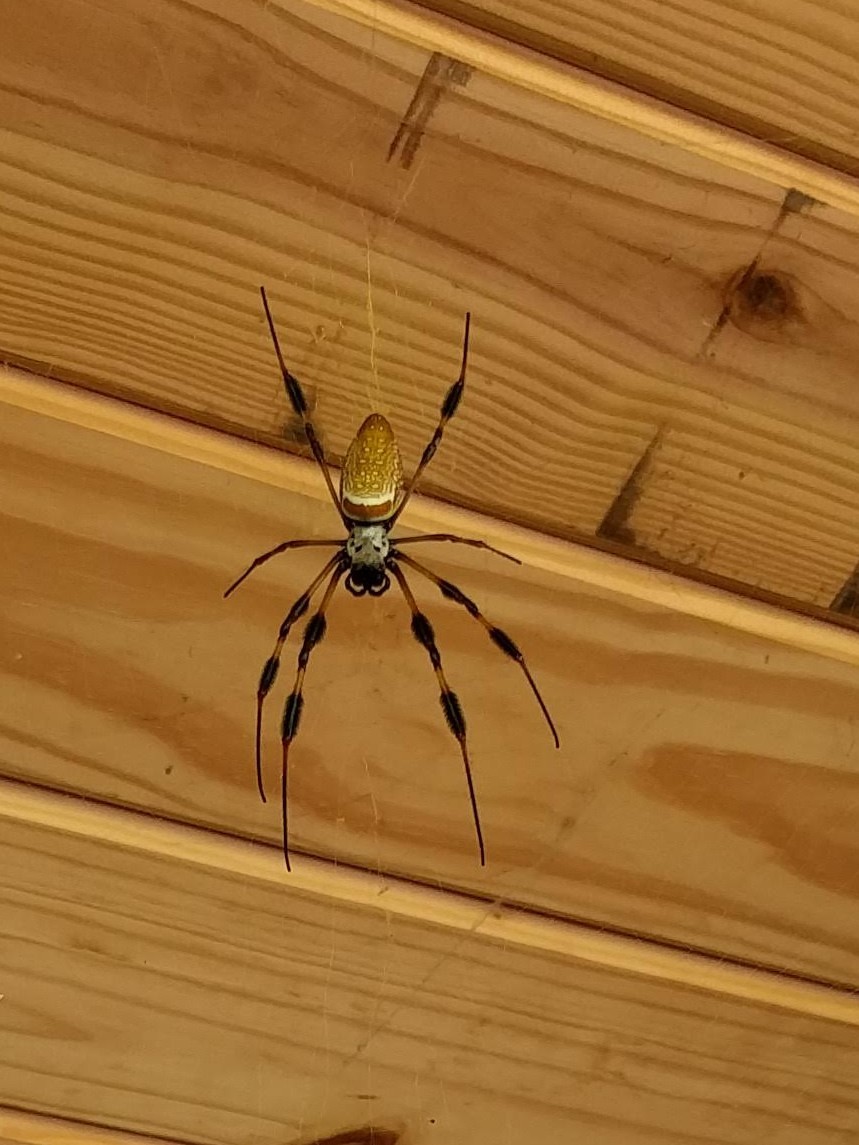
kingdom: Animalia
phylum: Arthropoda
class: Arachnida
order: Araneae
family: Araneidae
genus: Trichonephila
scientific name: Trichonephila clavipes
